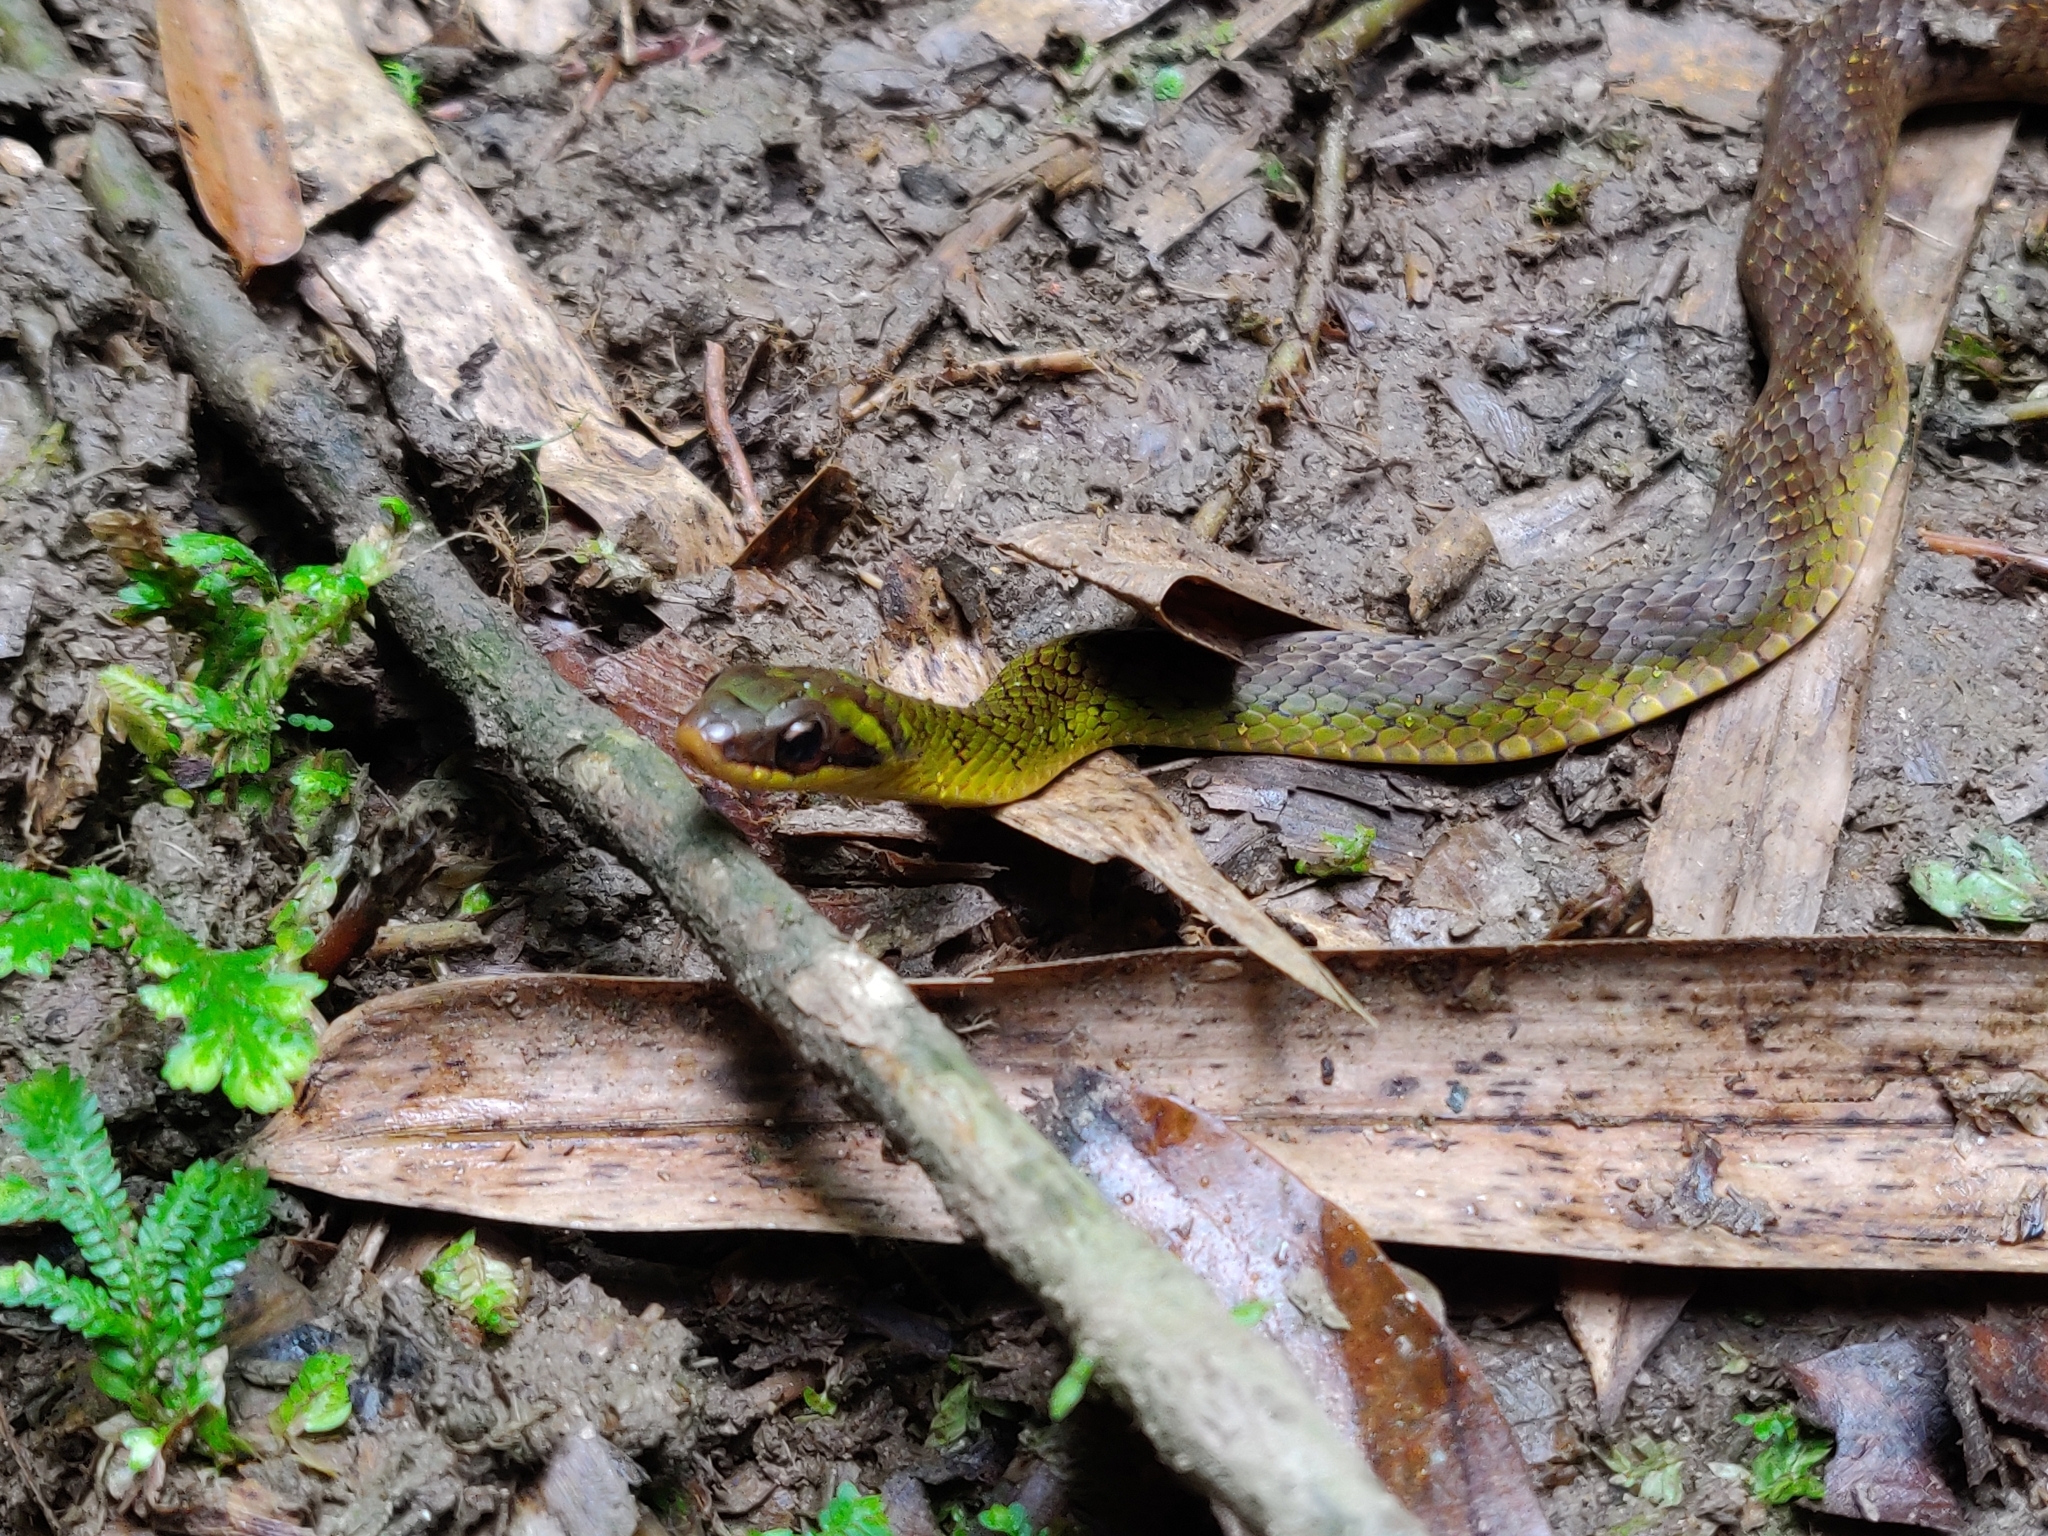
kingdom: Animalia
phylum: Chordata
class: Squamata
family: Colubridae
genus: Erythrolamprus
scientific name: Erythrolamprus zweifeli
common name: Braided groundsnake
